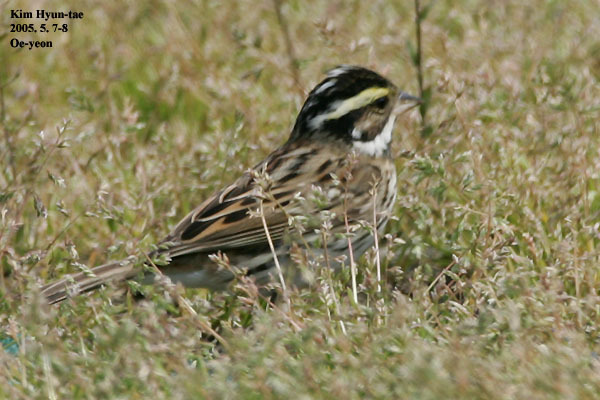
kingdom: Animalia
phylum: Chordata
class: Aves
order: Passeriformes
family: Emberizidae
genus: Emberiza
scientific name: Emberiza chrysophrys
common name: Yellow-browed bunting
